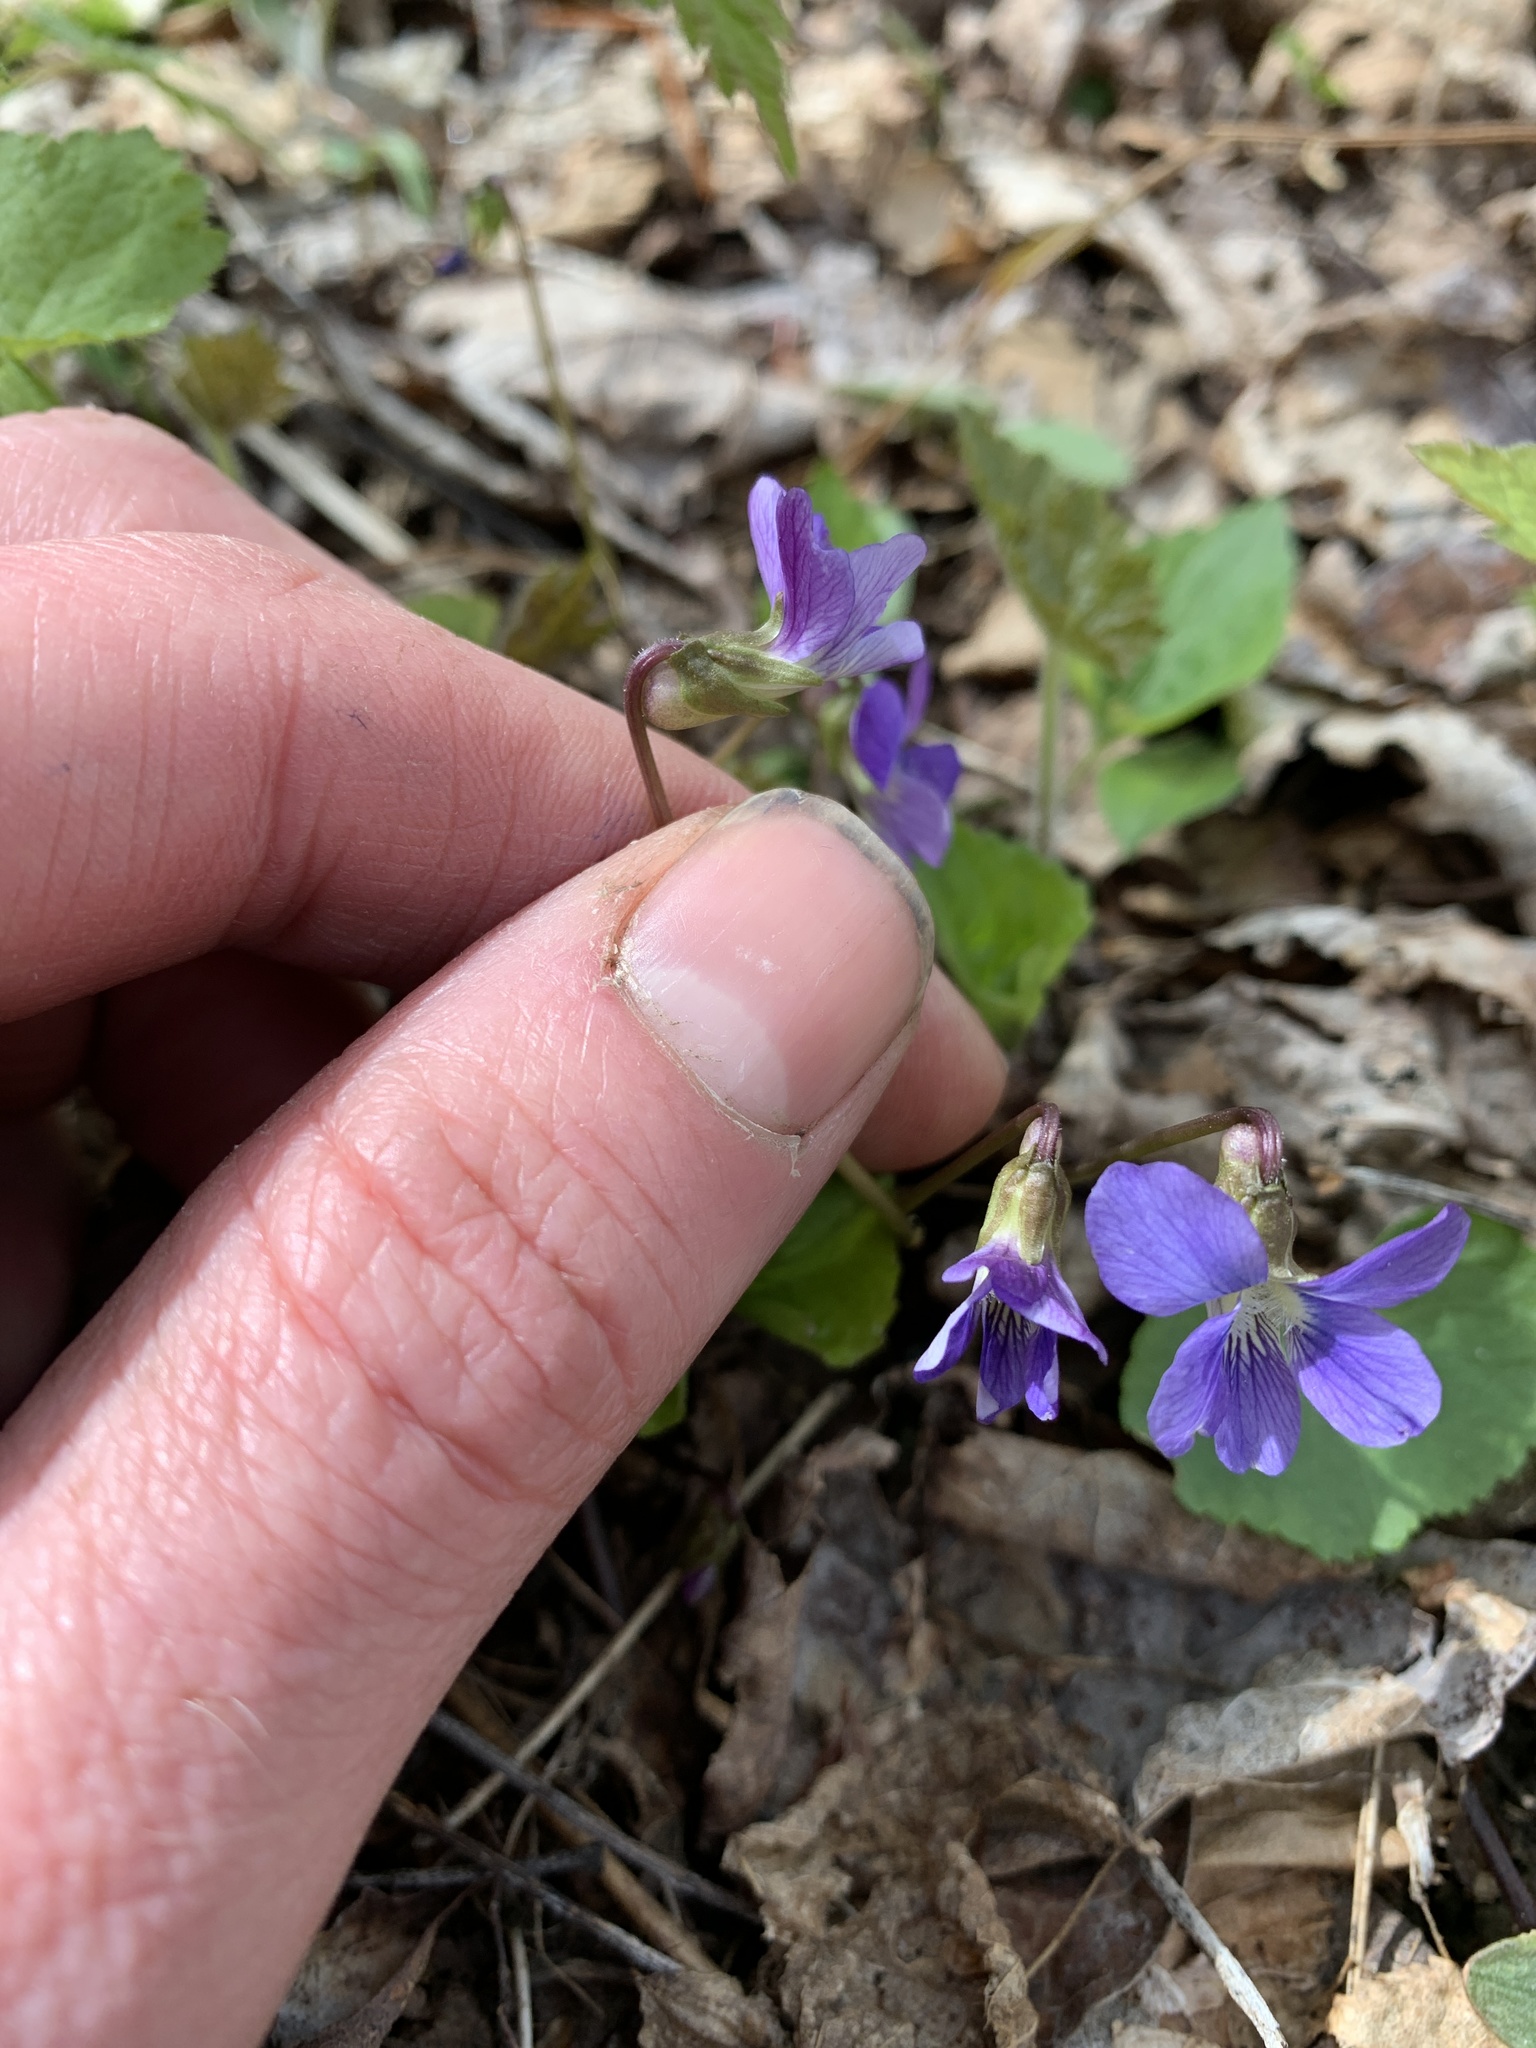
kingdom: Plantae
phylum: Tracheophyta
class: Magnoliopsida
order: Malpighiales
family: Violaceae
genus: Viola
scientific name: Viola sororia
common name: Dooryard violet
